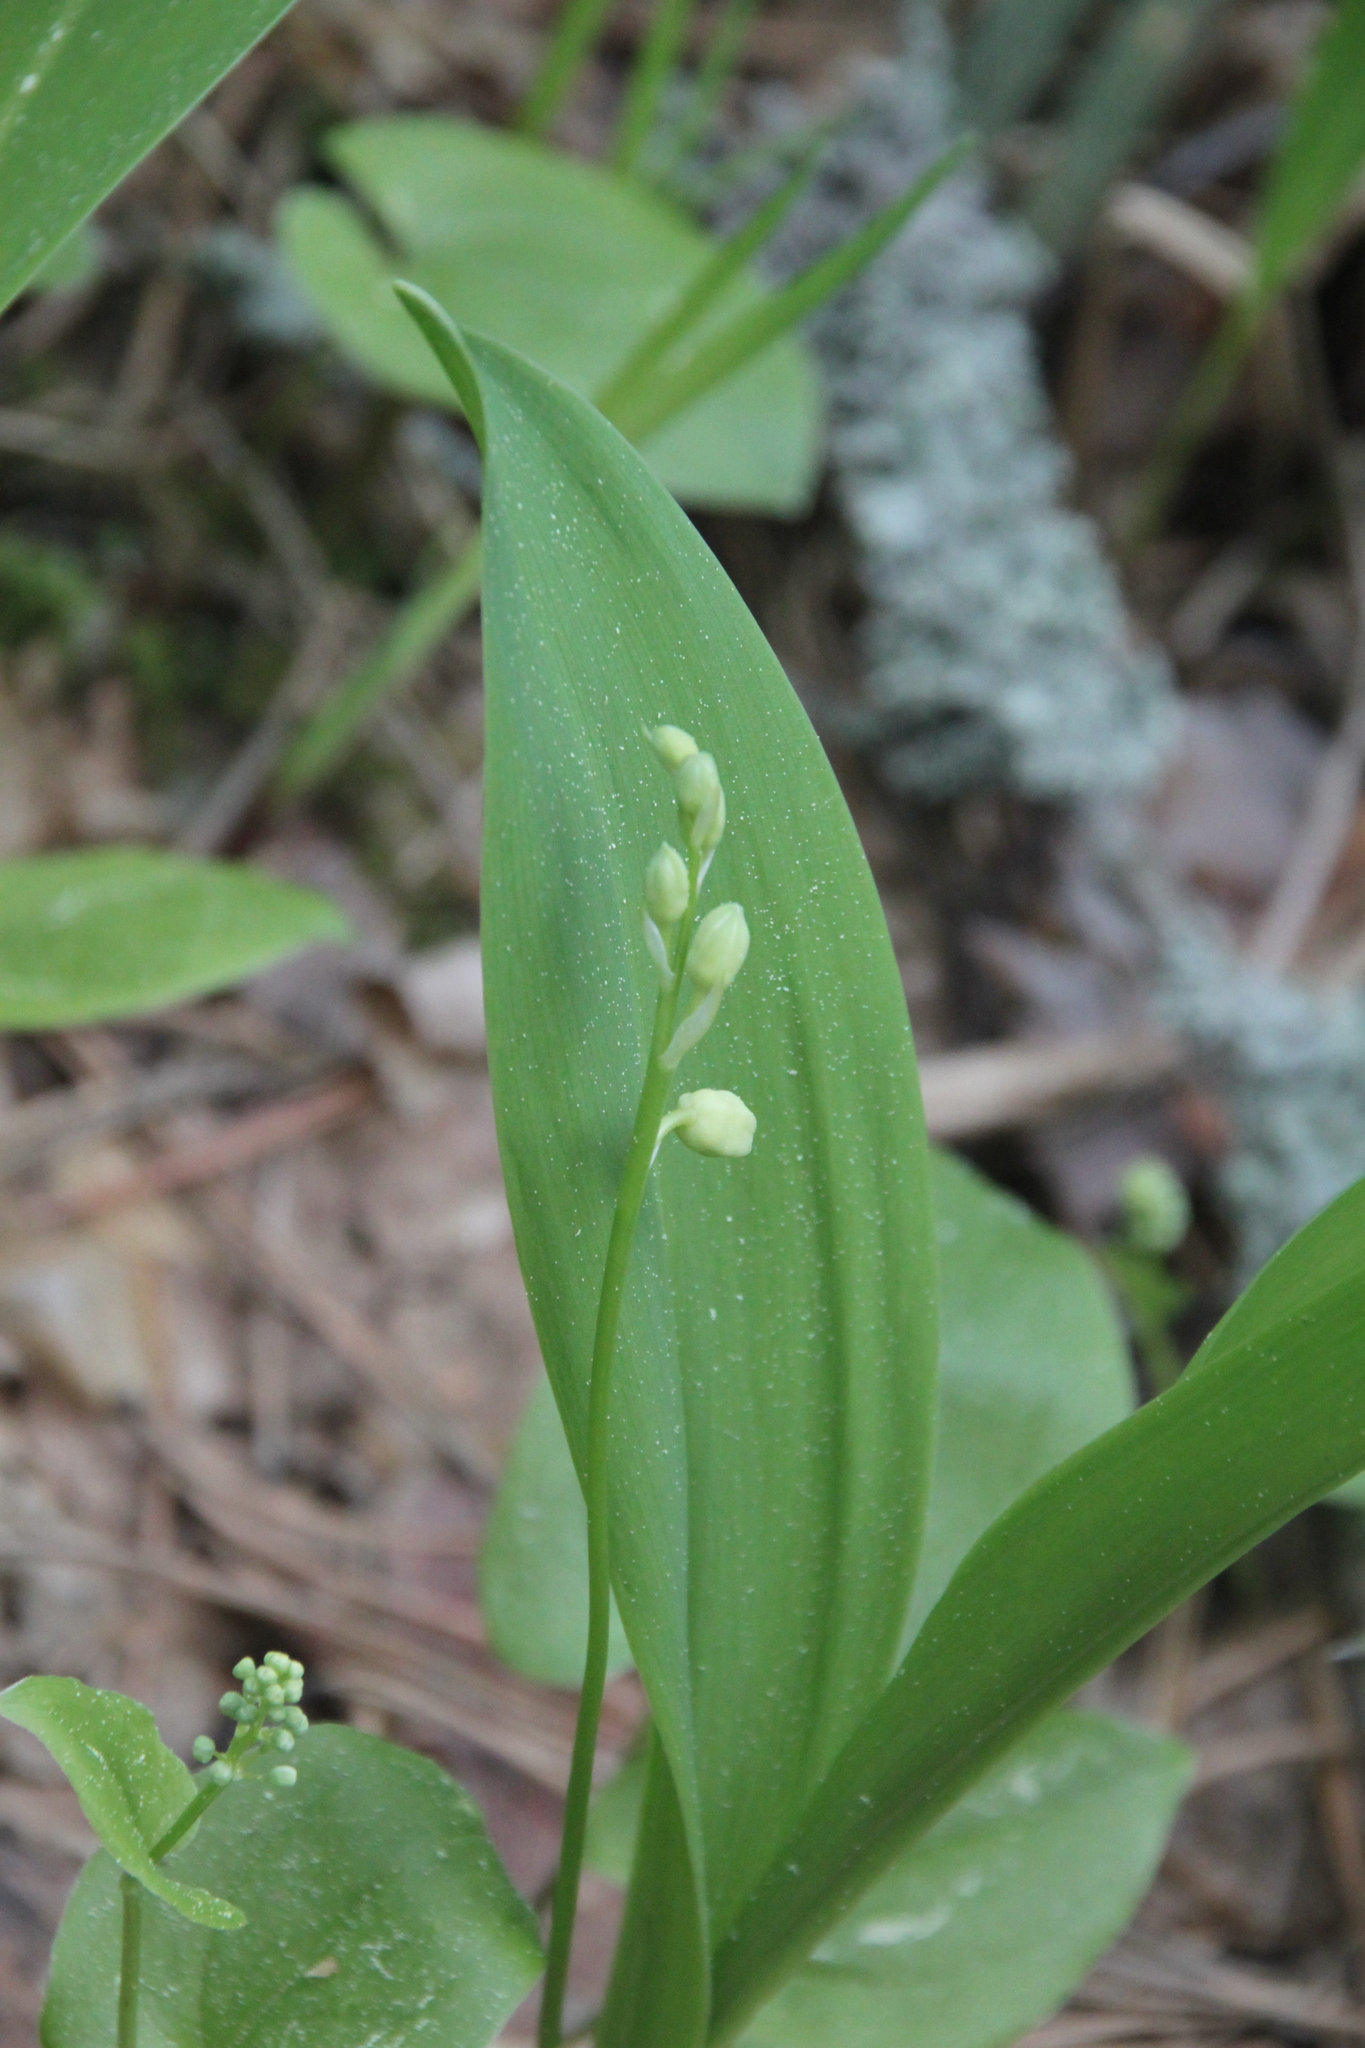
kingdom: Plantae
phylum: Tracheophyta
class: Liliopsida
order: Asparagales
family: Asparagaceae
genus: Convallaria
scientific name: Convallaria majalis
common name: Lily-of-the-valley
